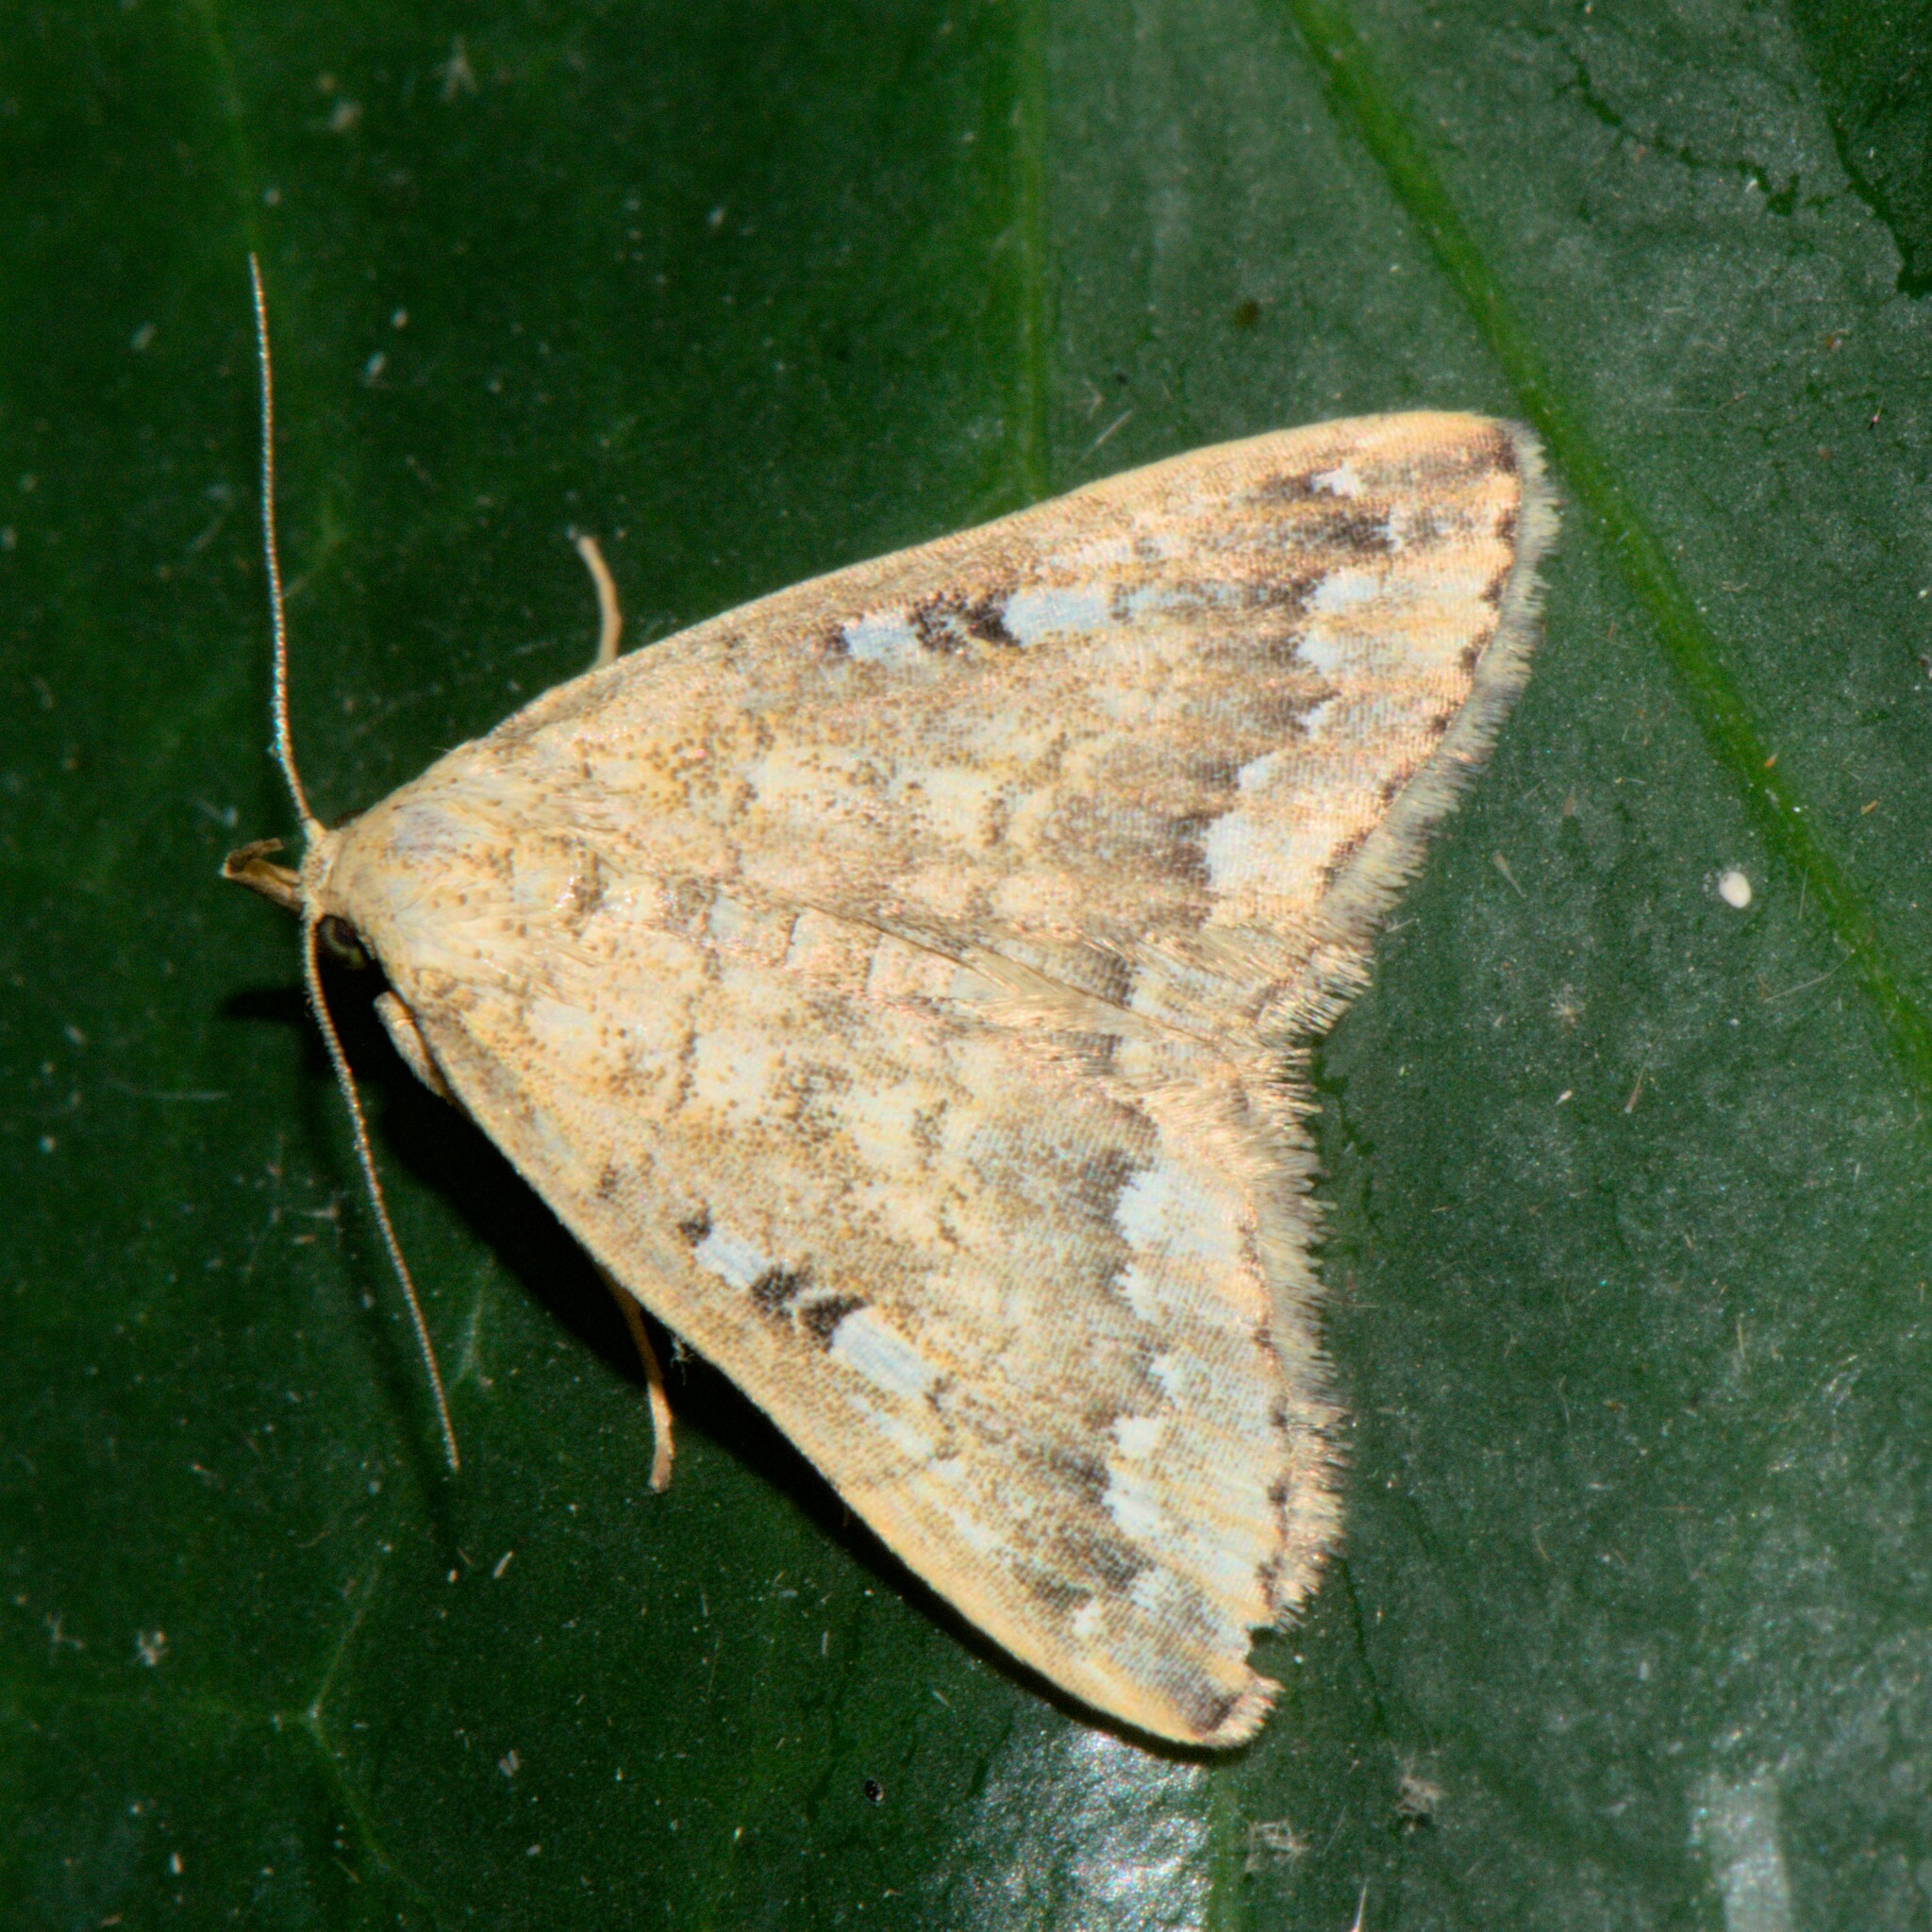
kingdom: Animalia
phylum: Arthropoda
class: Insecta
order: Lepidoptera
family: Erebidae
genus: Herminia
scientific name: Herminia
